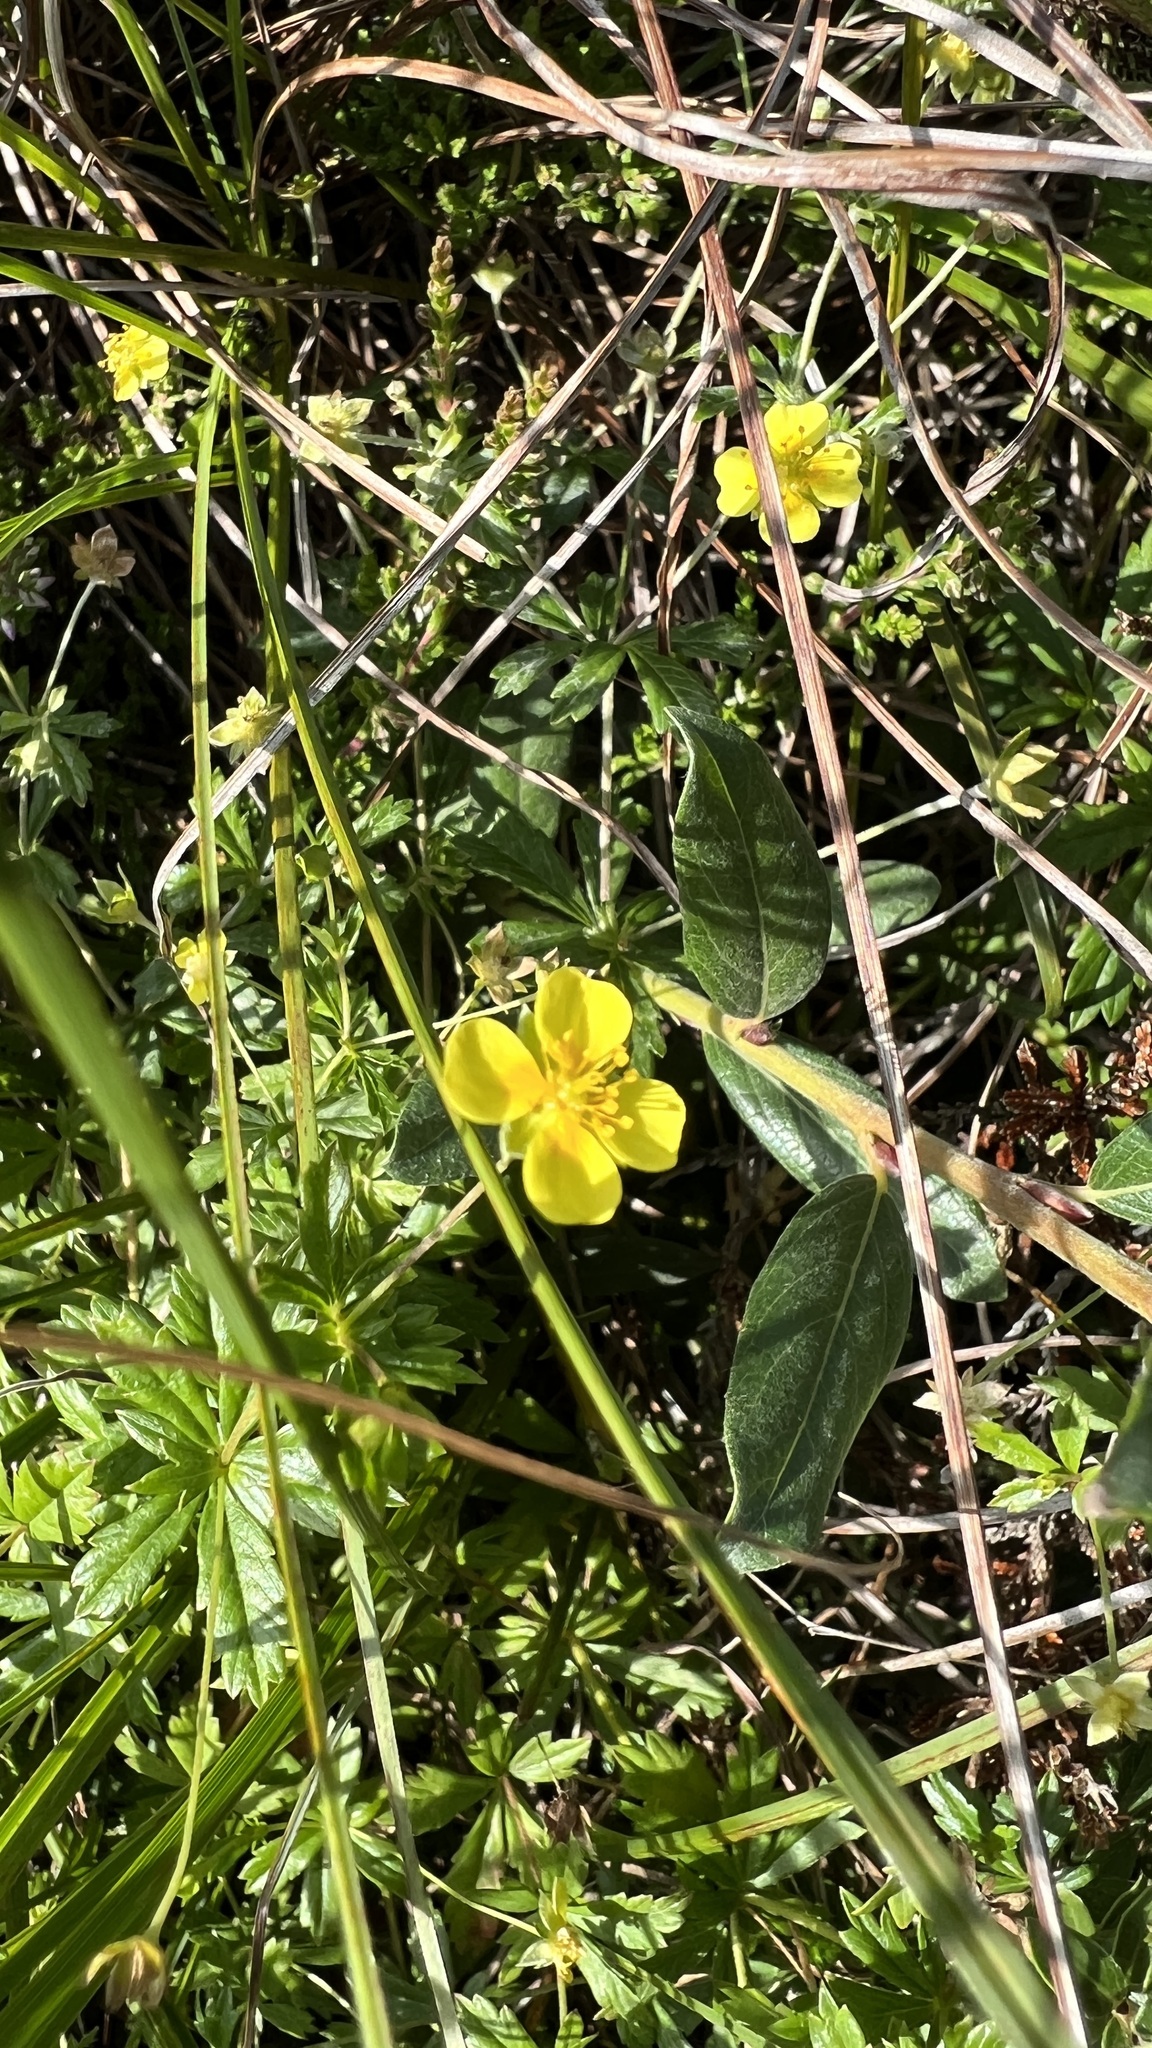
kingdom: Plantae
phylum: Tracheophyta
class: Magnoliopsida
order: Rosales
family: Rosaceae
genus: Potentilla
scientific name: Potentilla erecta
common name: Tormentil
